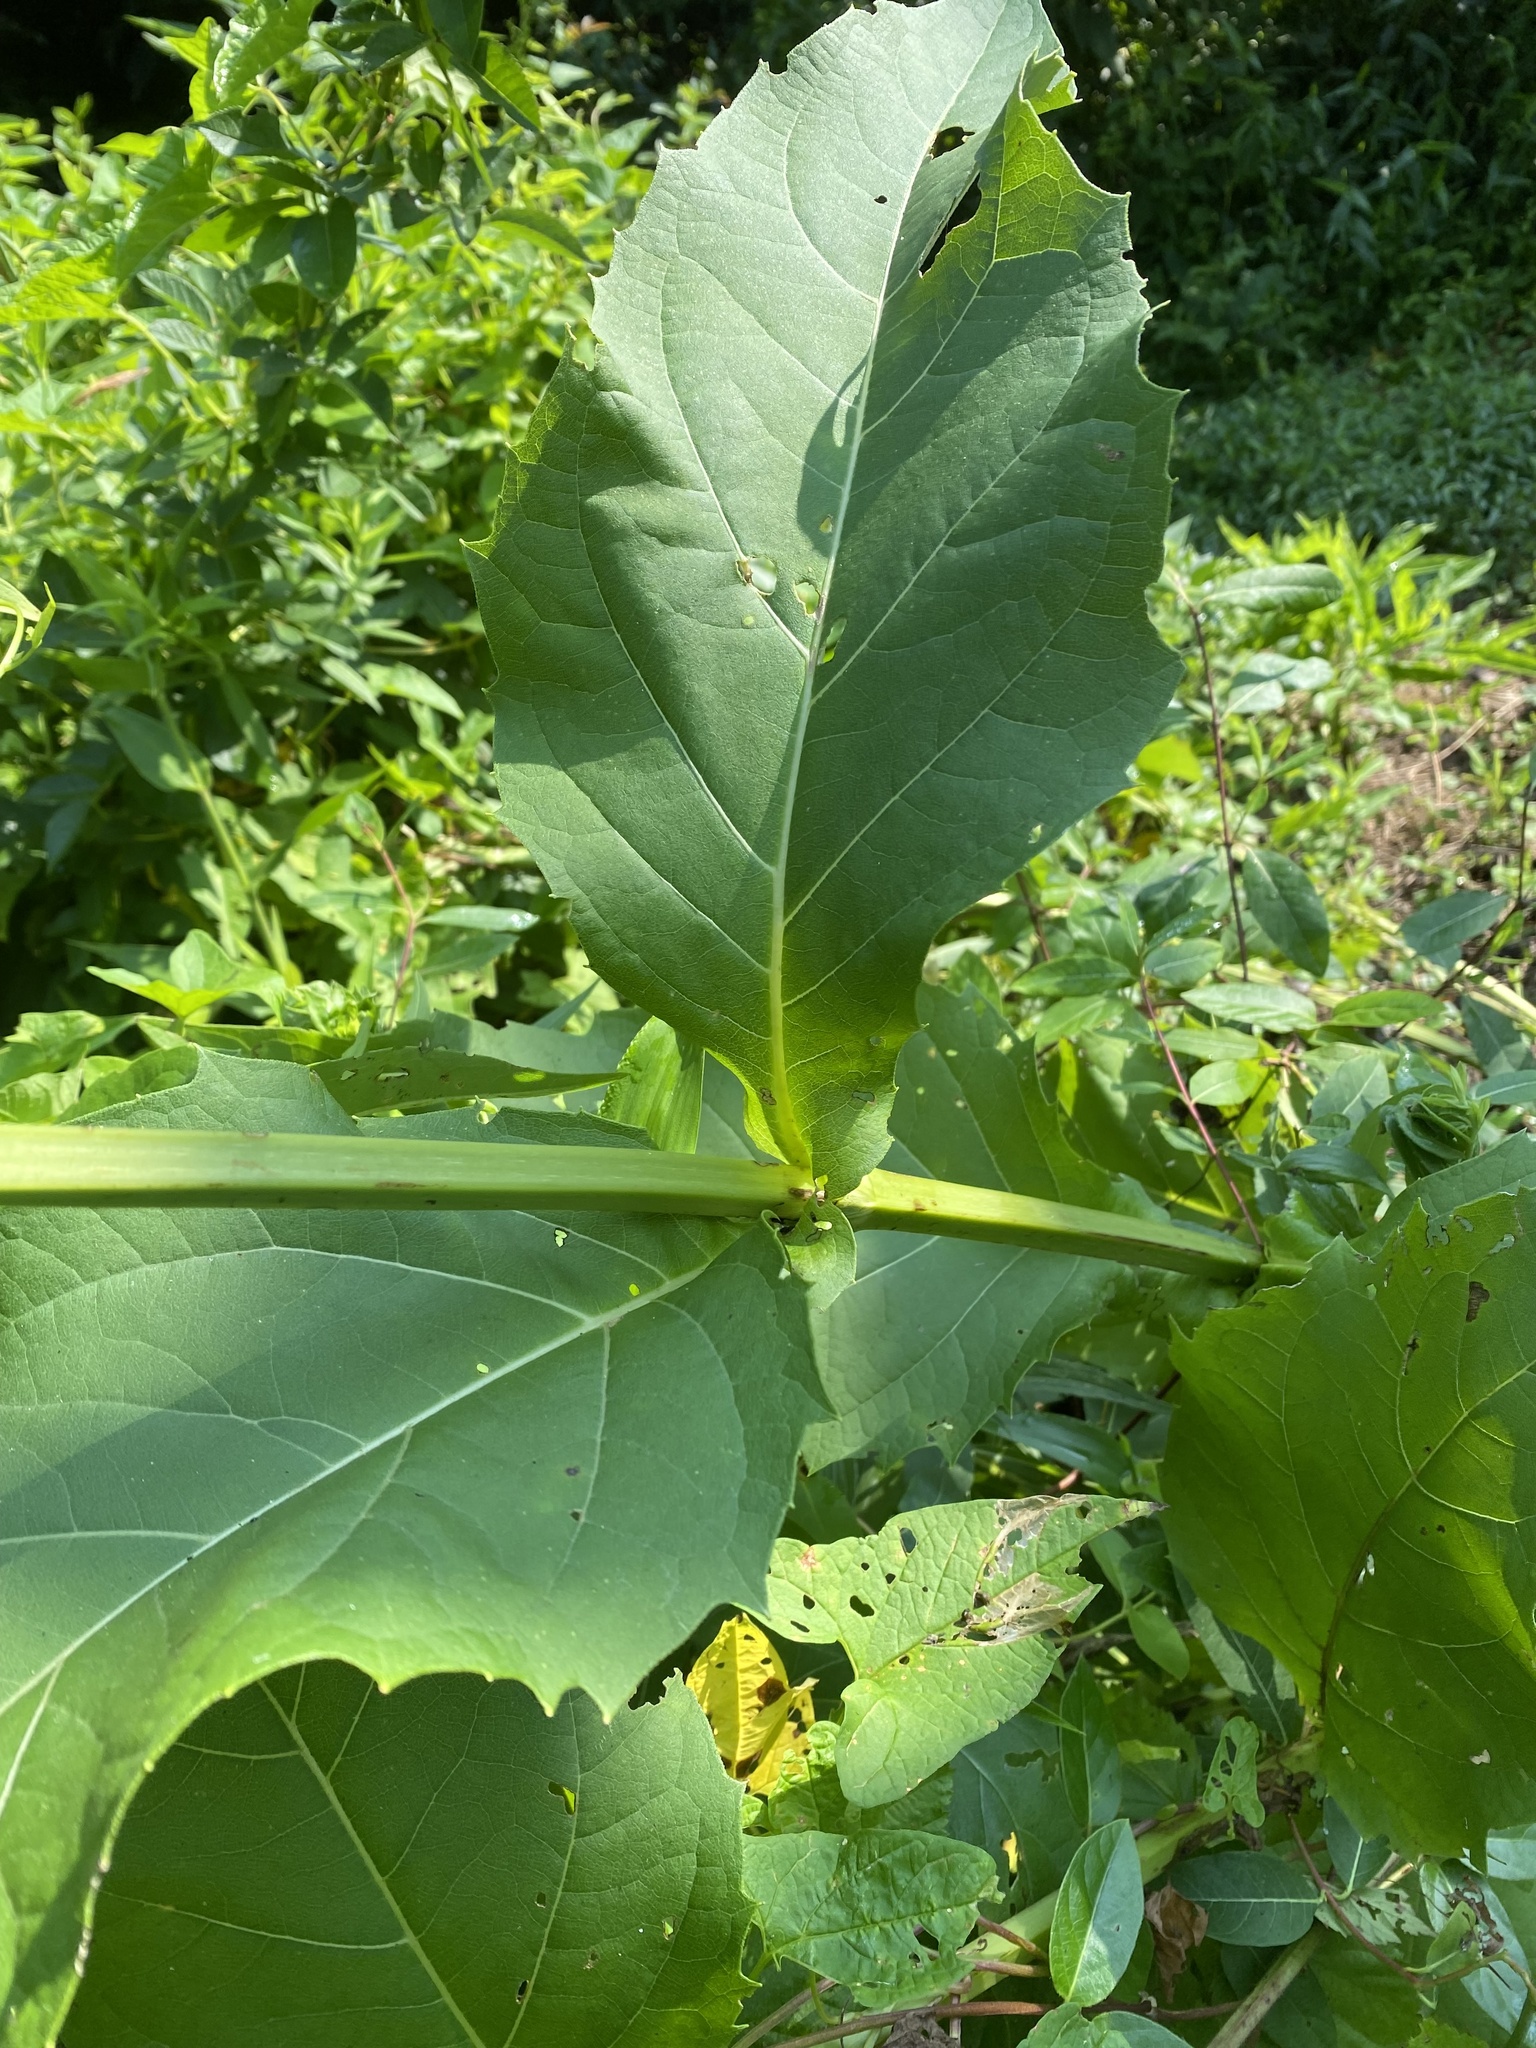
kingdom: Plantae
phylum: Tracheophyta
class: Magnoliopsida
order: Asterales
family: Asteraceae
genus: Silphium
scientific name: Silphium perfoliatum
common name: Cup-plant
